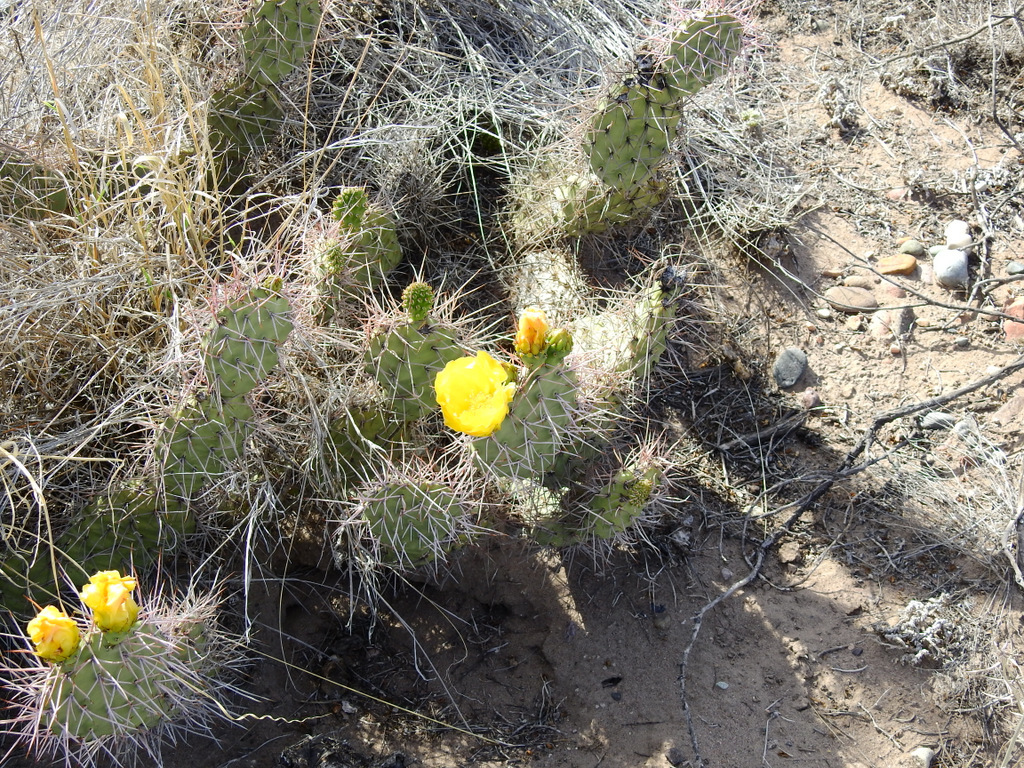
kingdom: Plantae
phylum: Tracheophyta
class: Magnoliopsida
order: Caryophyllales
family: Cactaceae
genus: Opuntia
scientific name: Opuntia sulphurea
